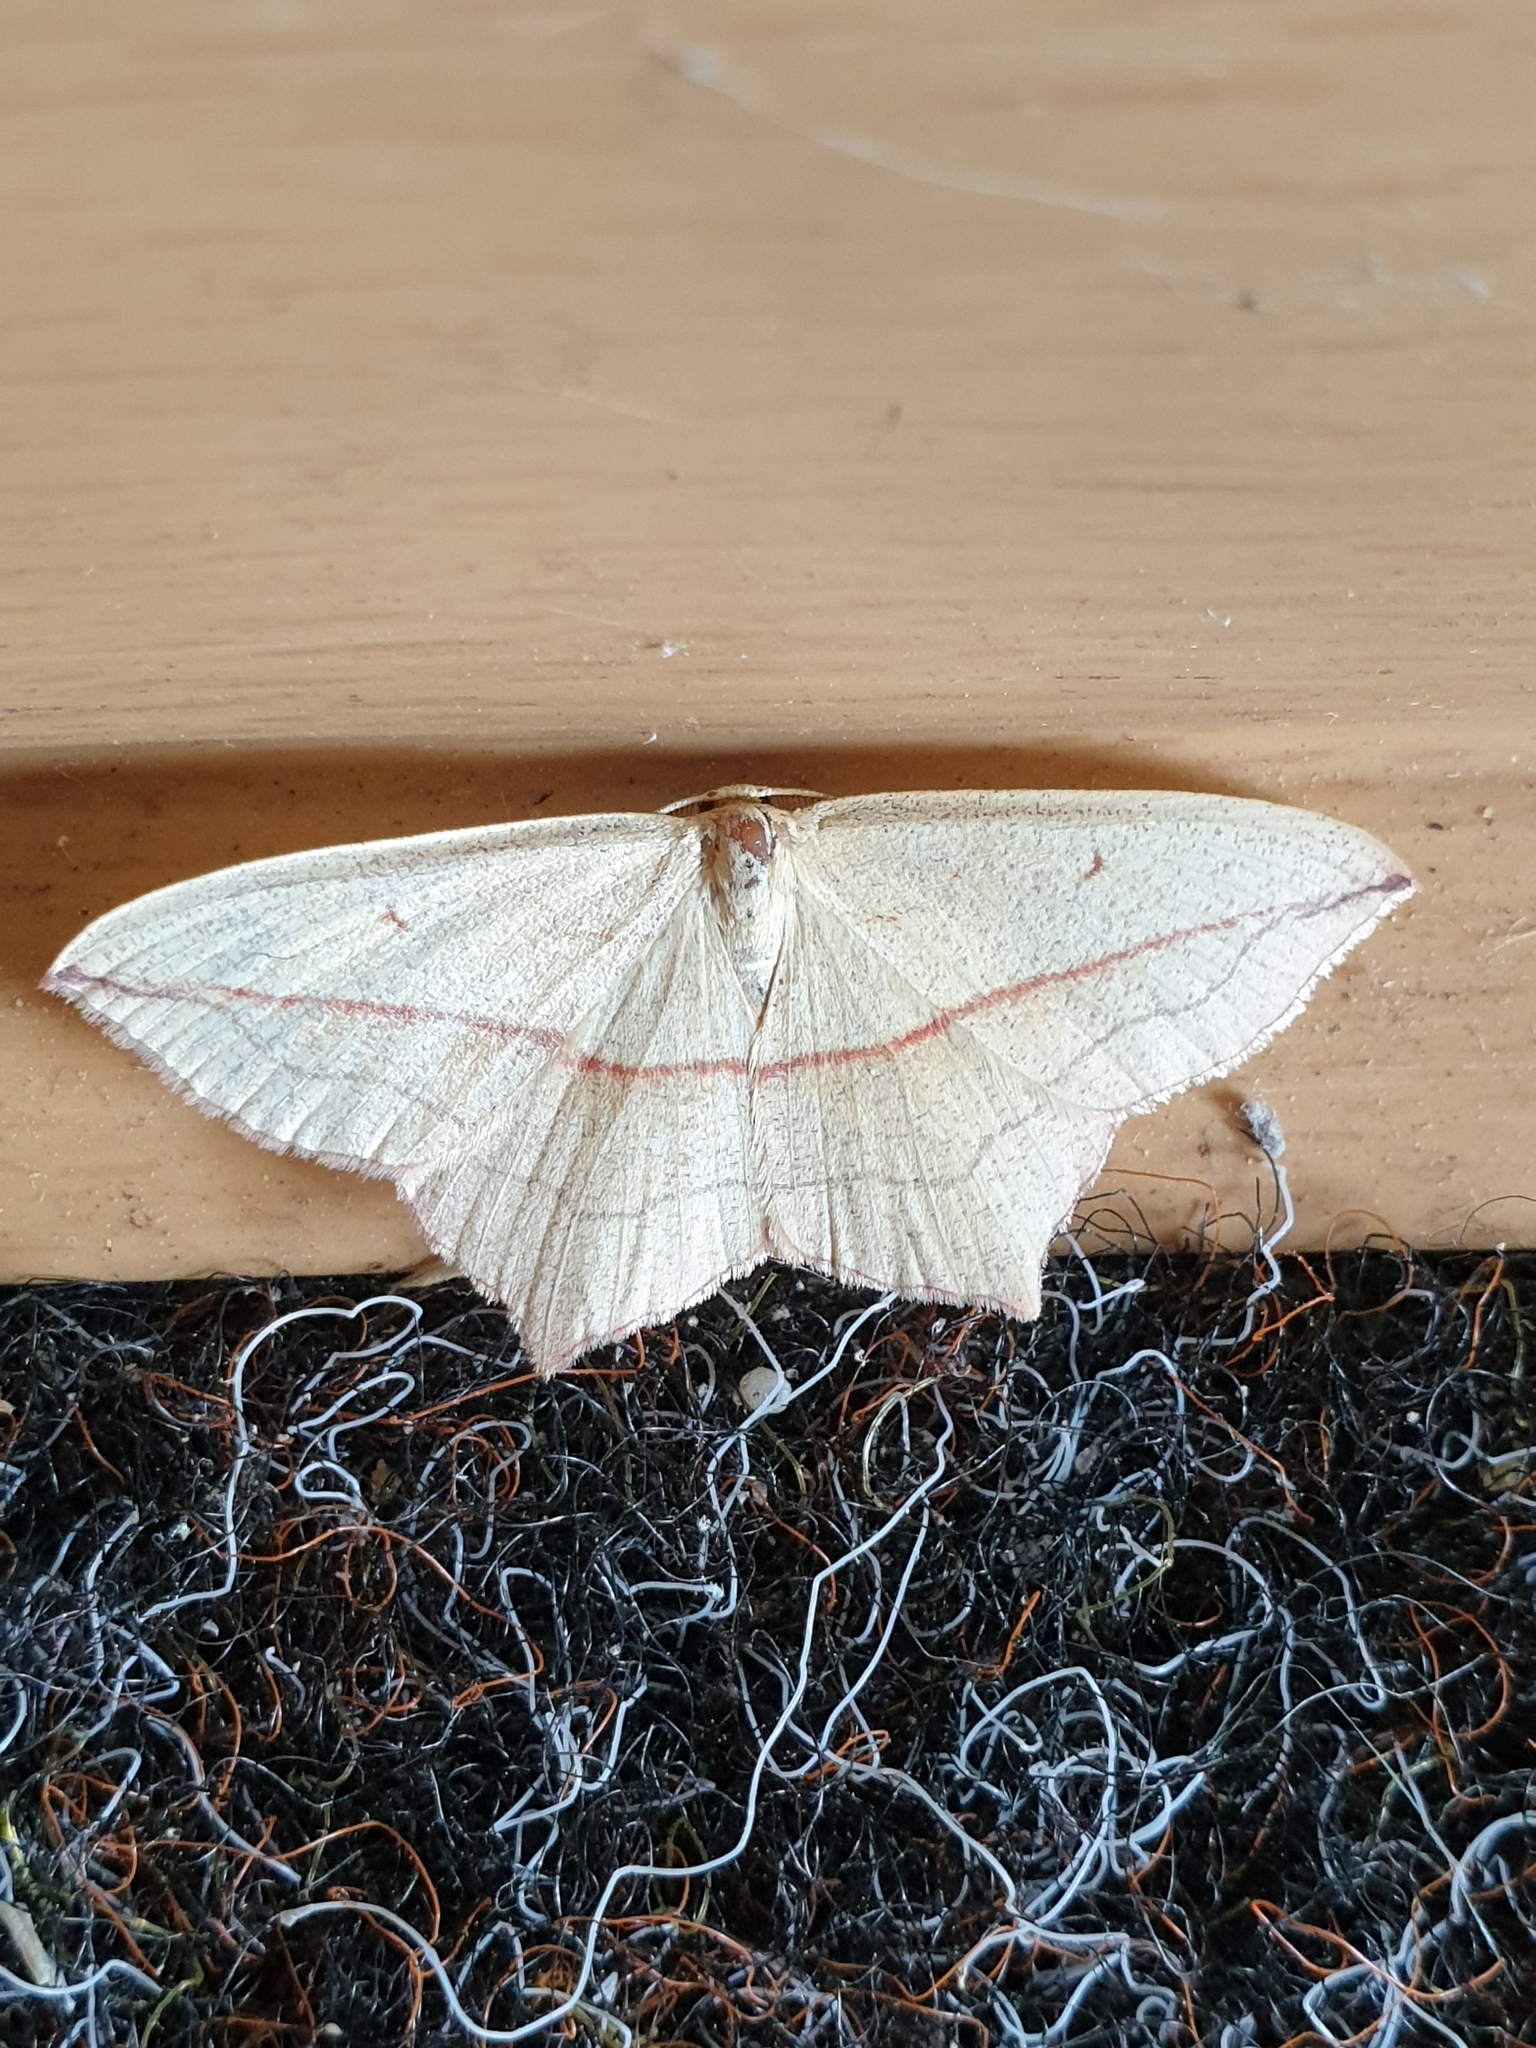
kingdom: Animalia
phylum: Arthropoda
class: Insecta
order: Lepidoptera
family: Geometridae
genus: Timandra
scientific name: Timandra comae
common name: Blood-vein
